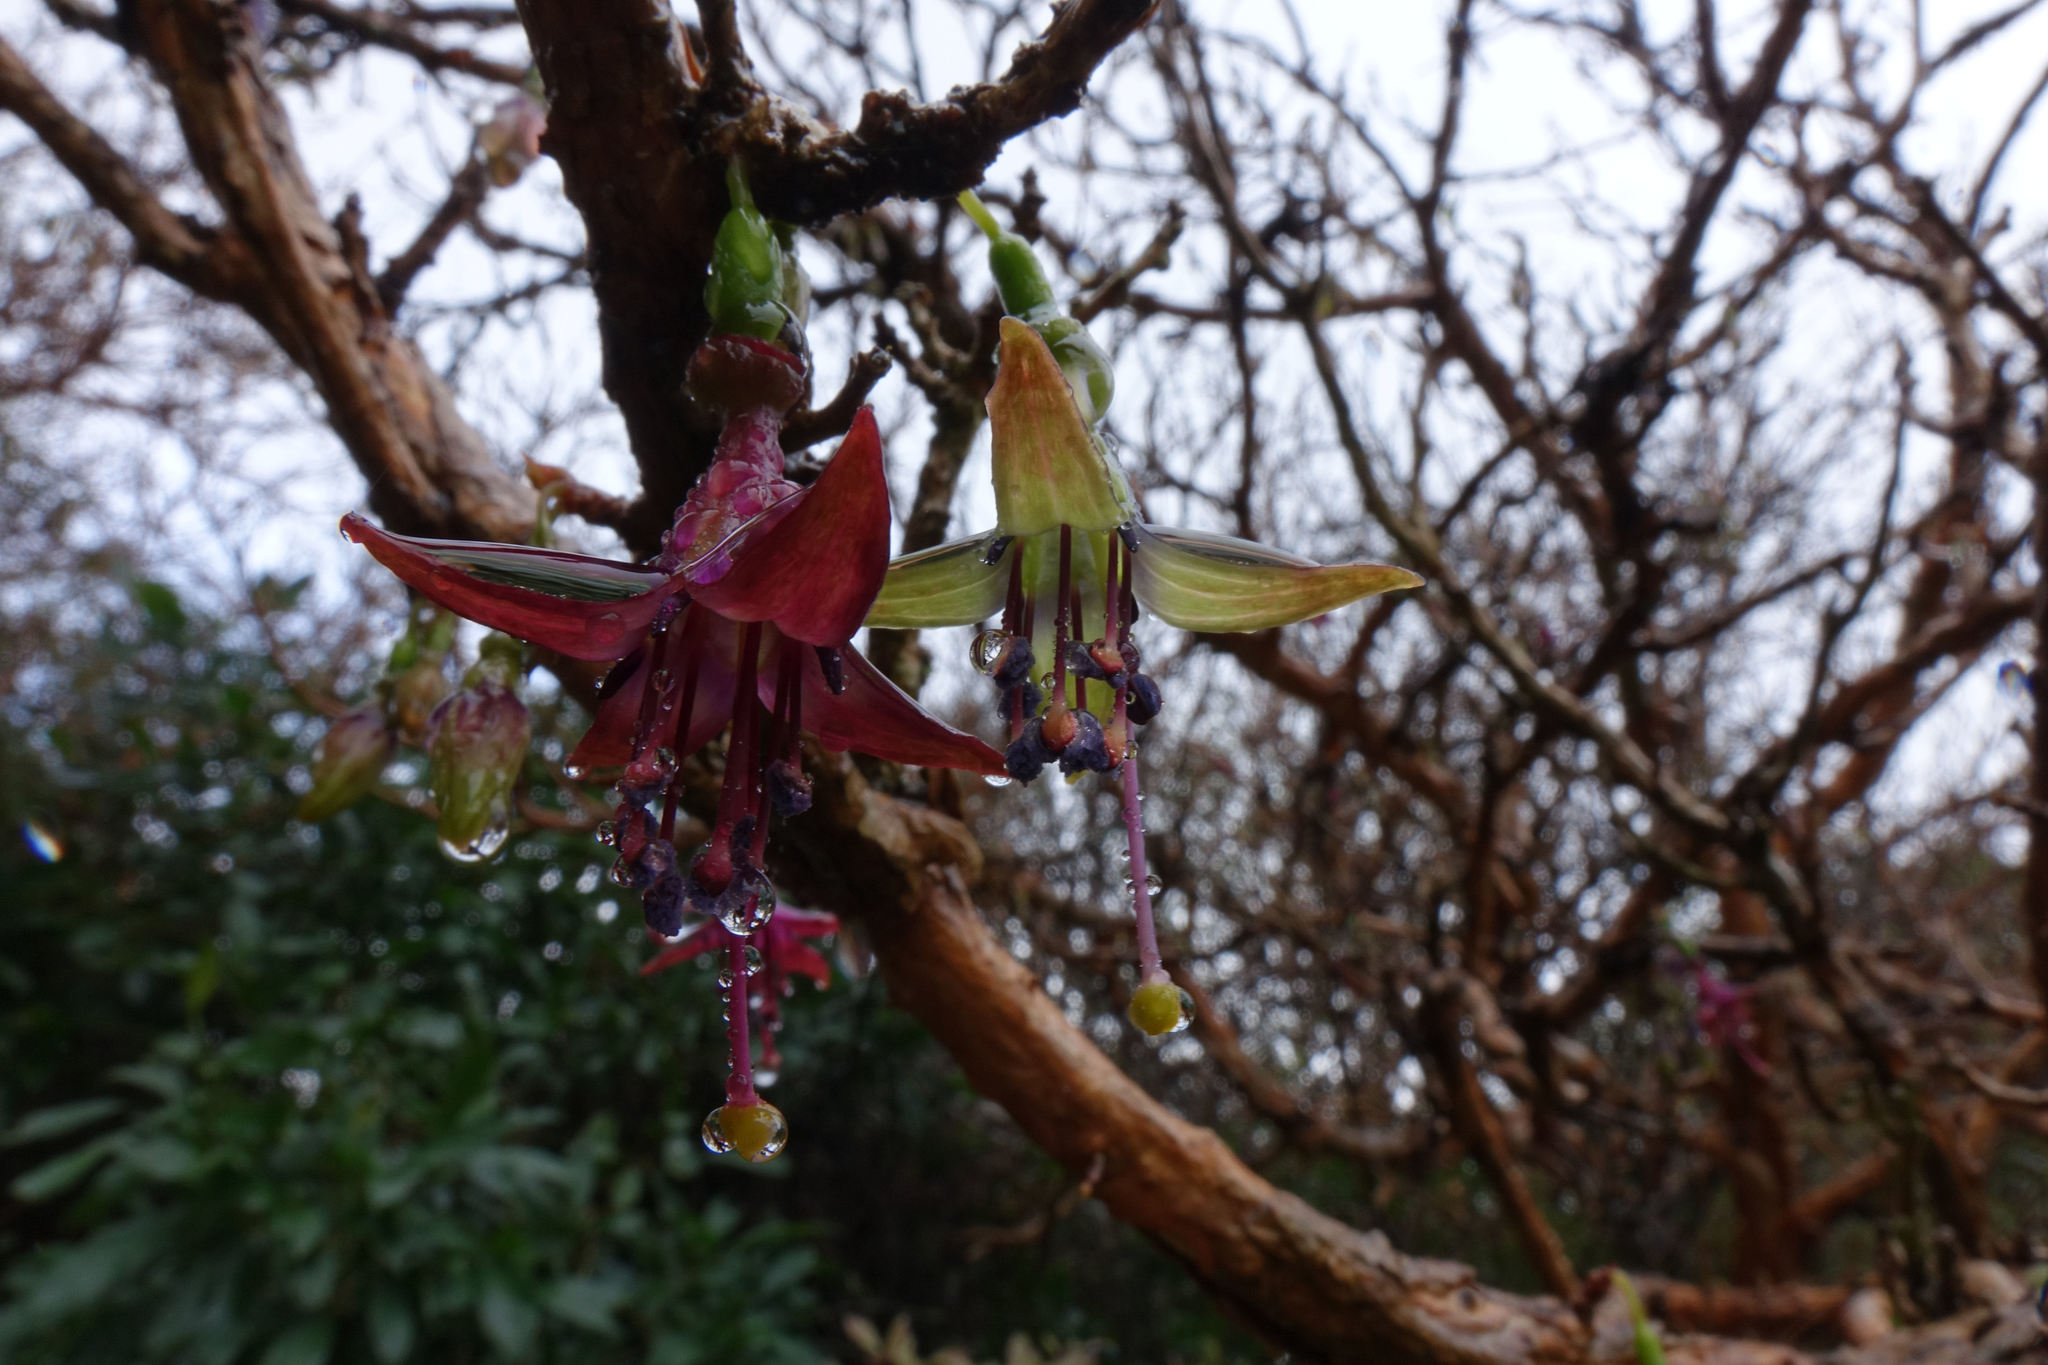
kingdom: Plantae
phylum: Tracheophyta
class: Magnoliopsida
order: Myrtales
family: Onagraceae
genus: Fuchsia
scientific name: Fuchsia excorticata
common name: Tree fuchsia
